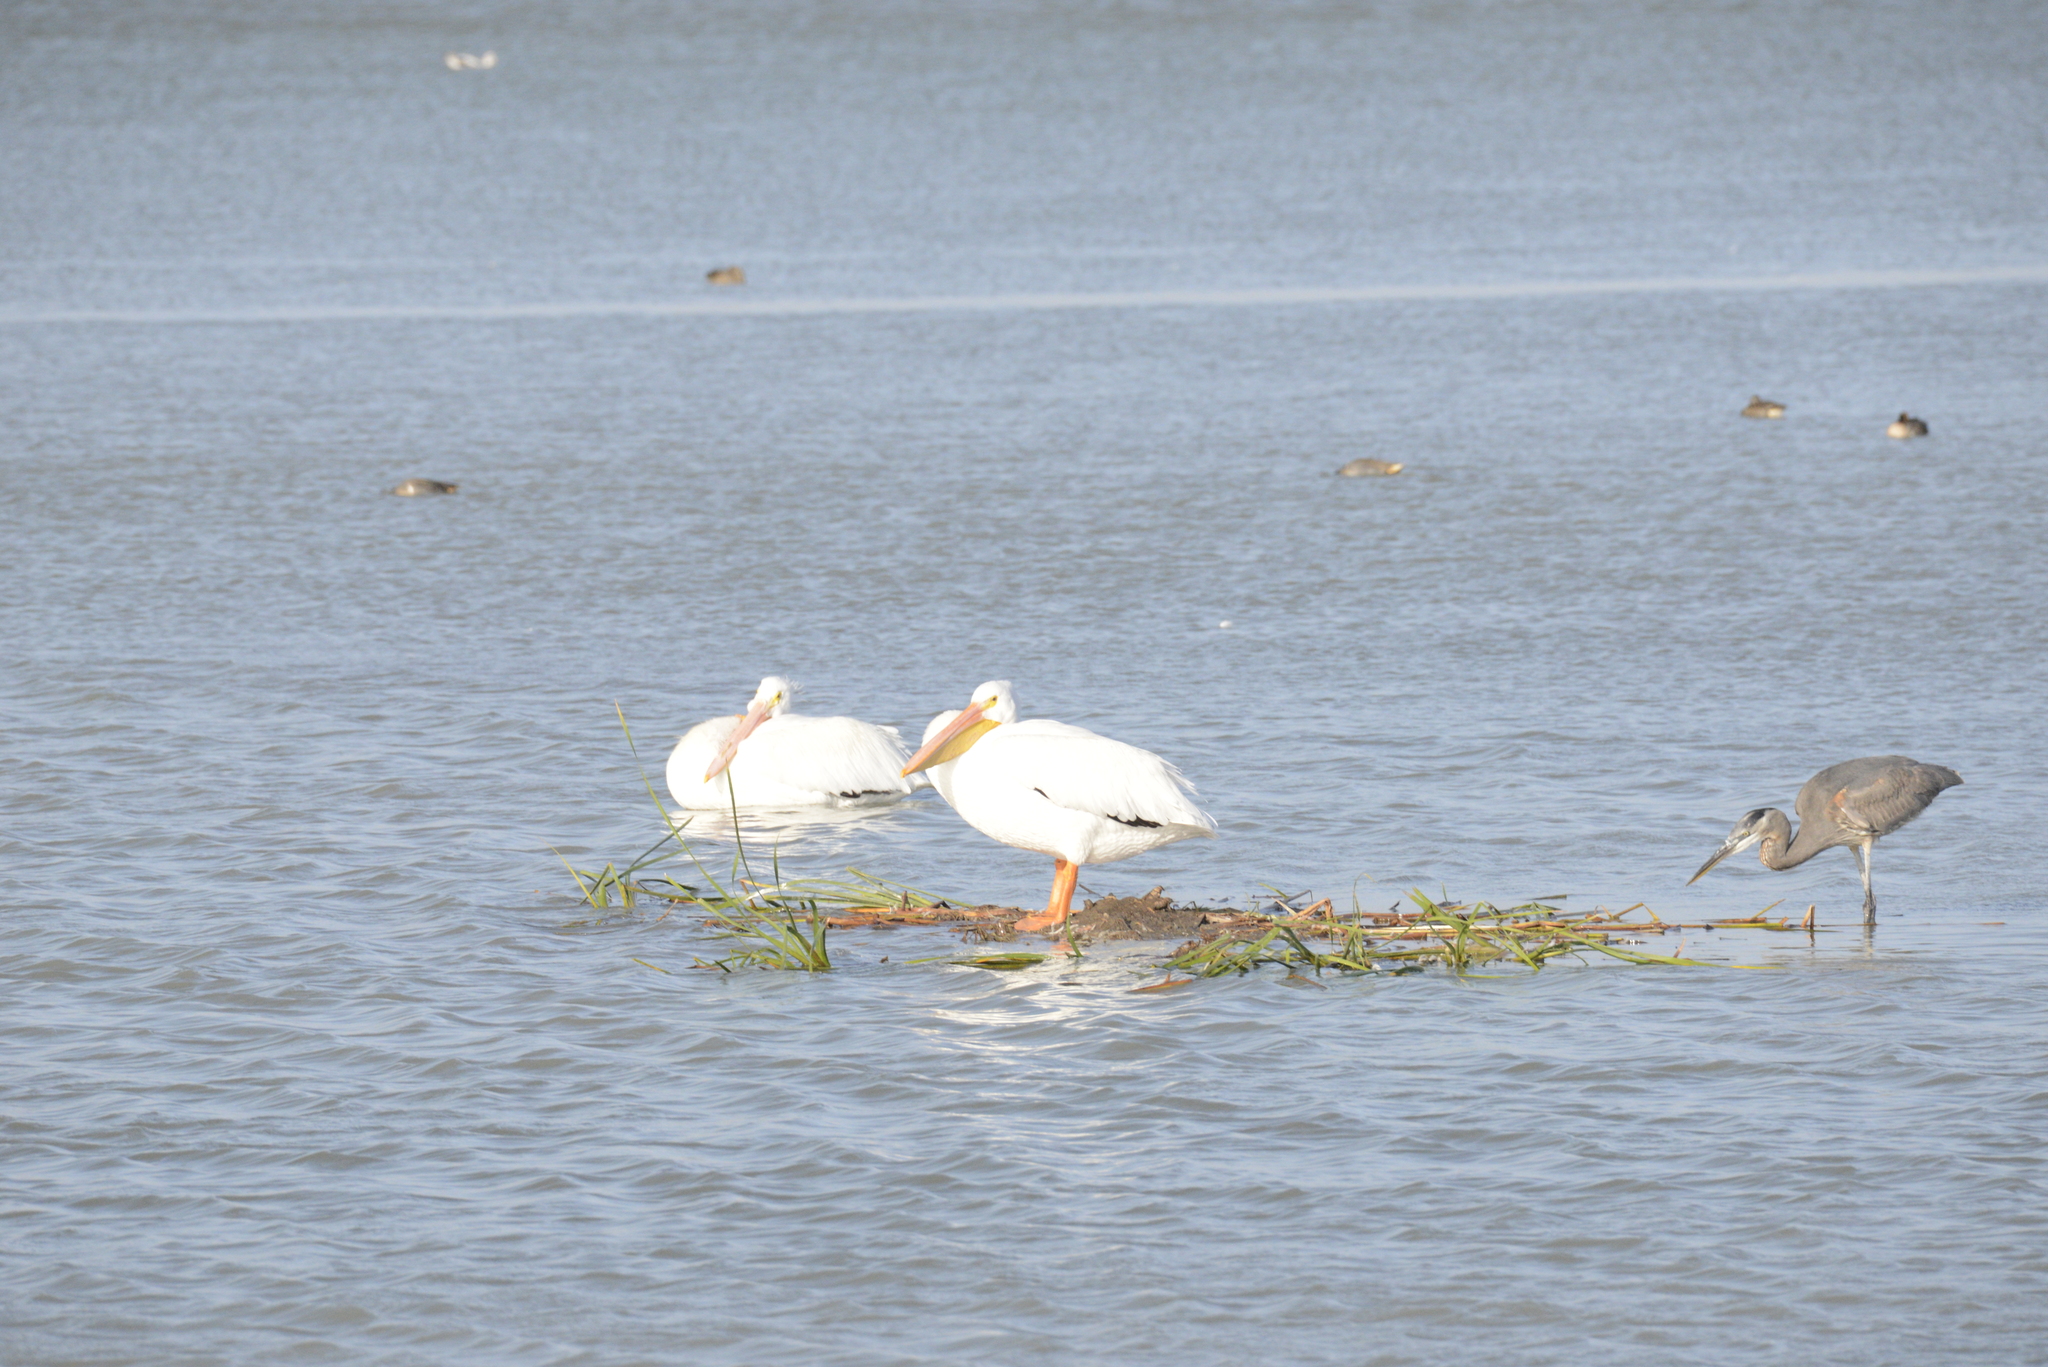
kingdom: Animalia
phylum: Chordata
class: Aves
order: Pelecaniformes
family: Ardeidae
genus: Ardea
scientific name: Ardea herodias
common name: Great blue heron
